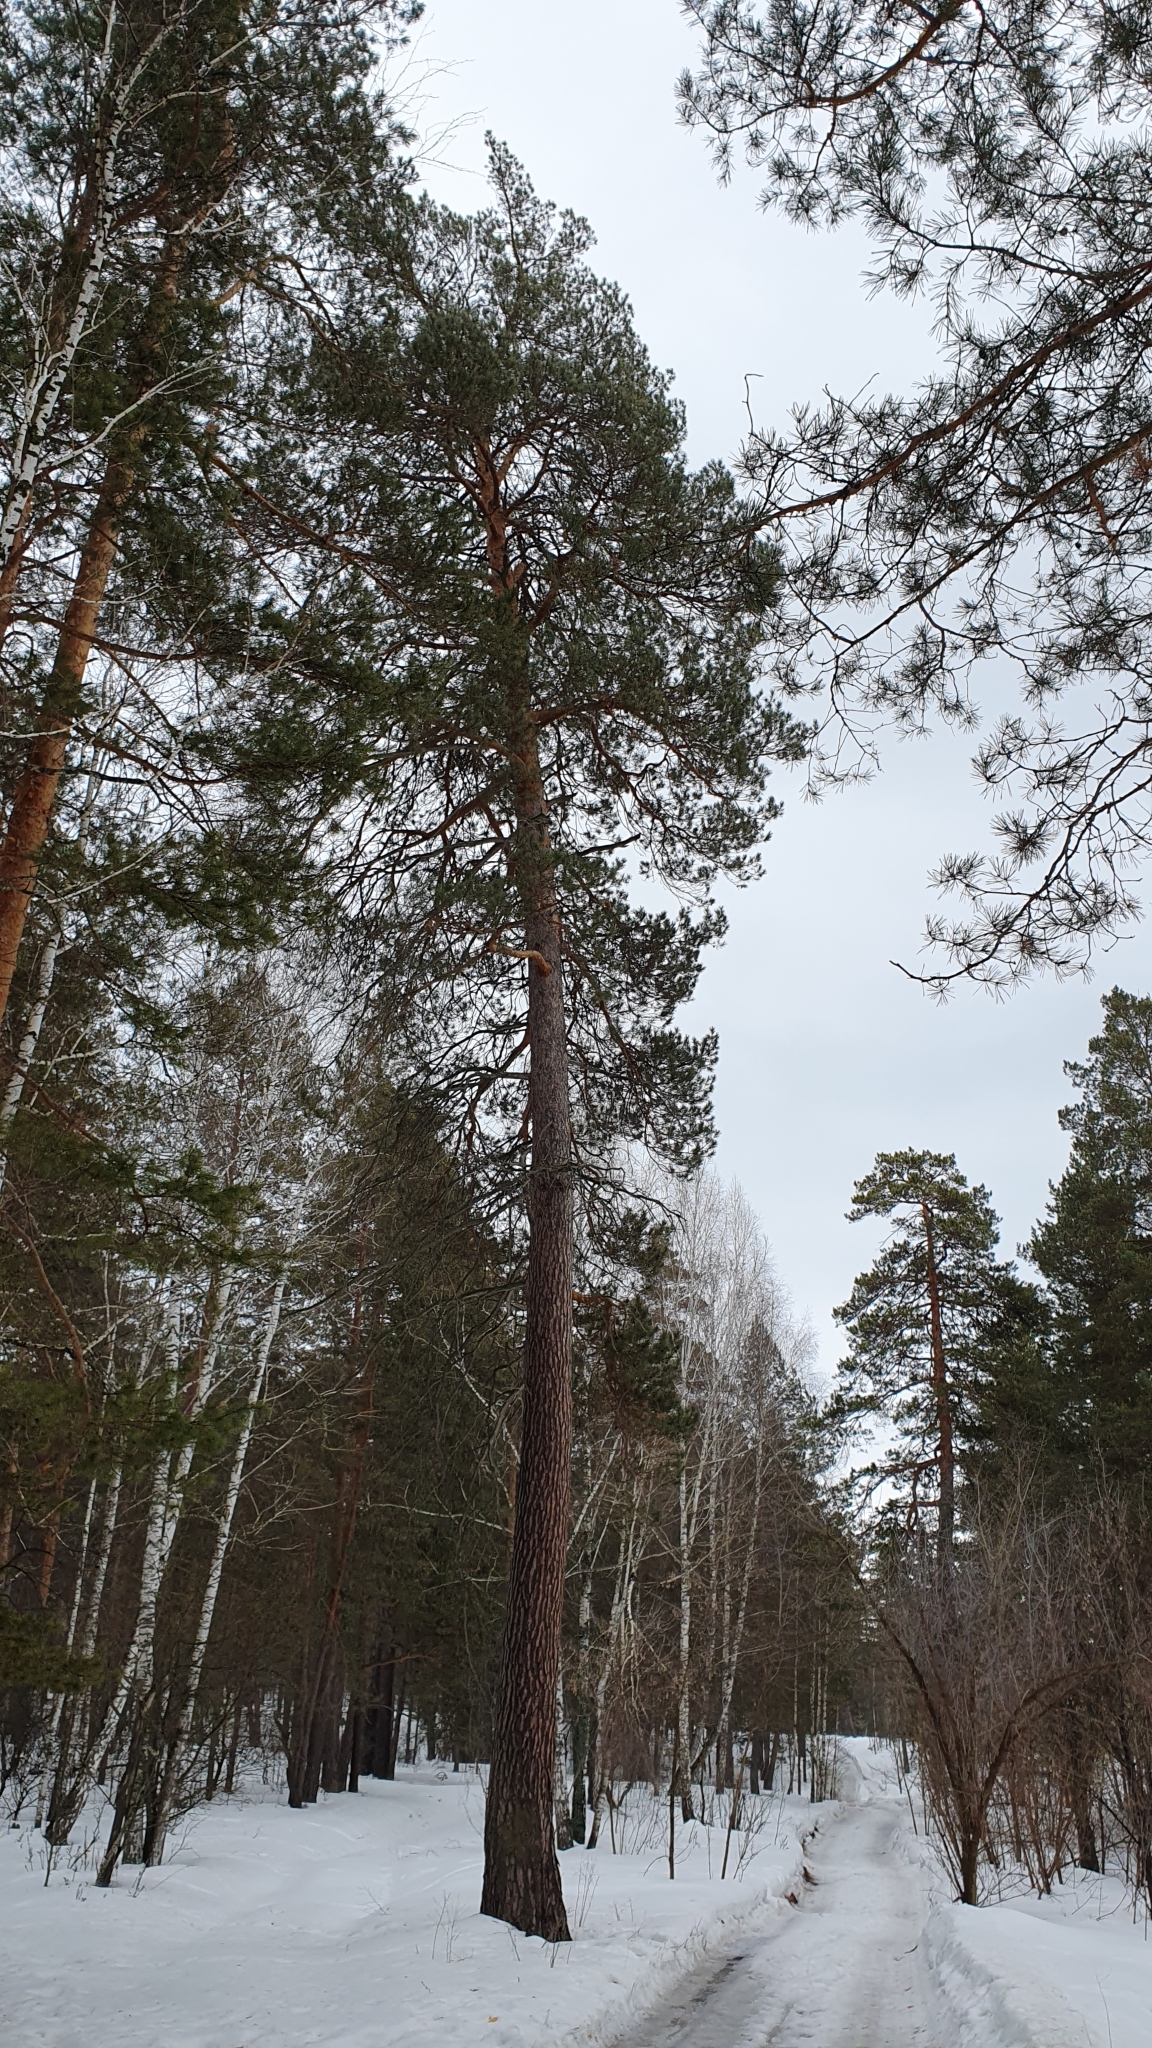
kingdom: Plantae
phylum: Tracheophyta
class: Pinopsida
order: Pinales
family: Pinaceae
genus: Pinus
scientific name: Pinus sylvestris
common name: Scots pine
